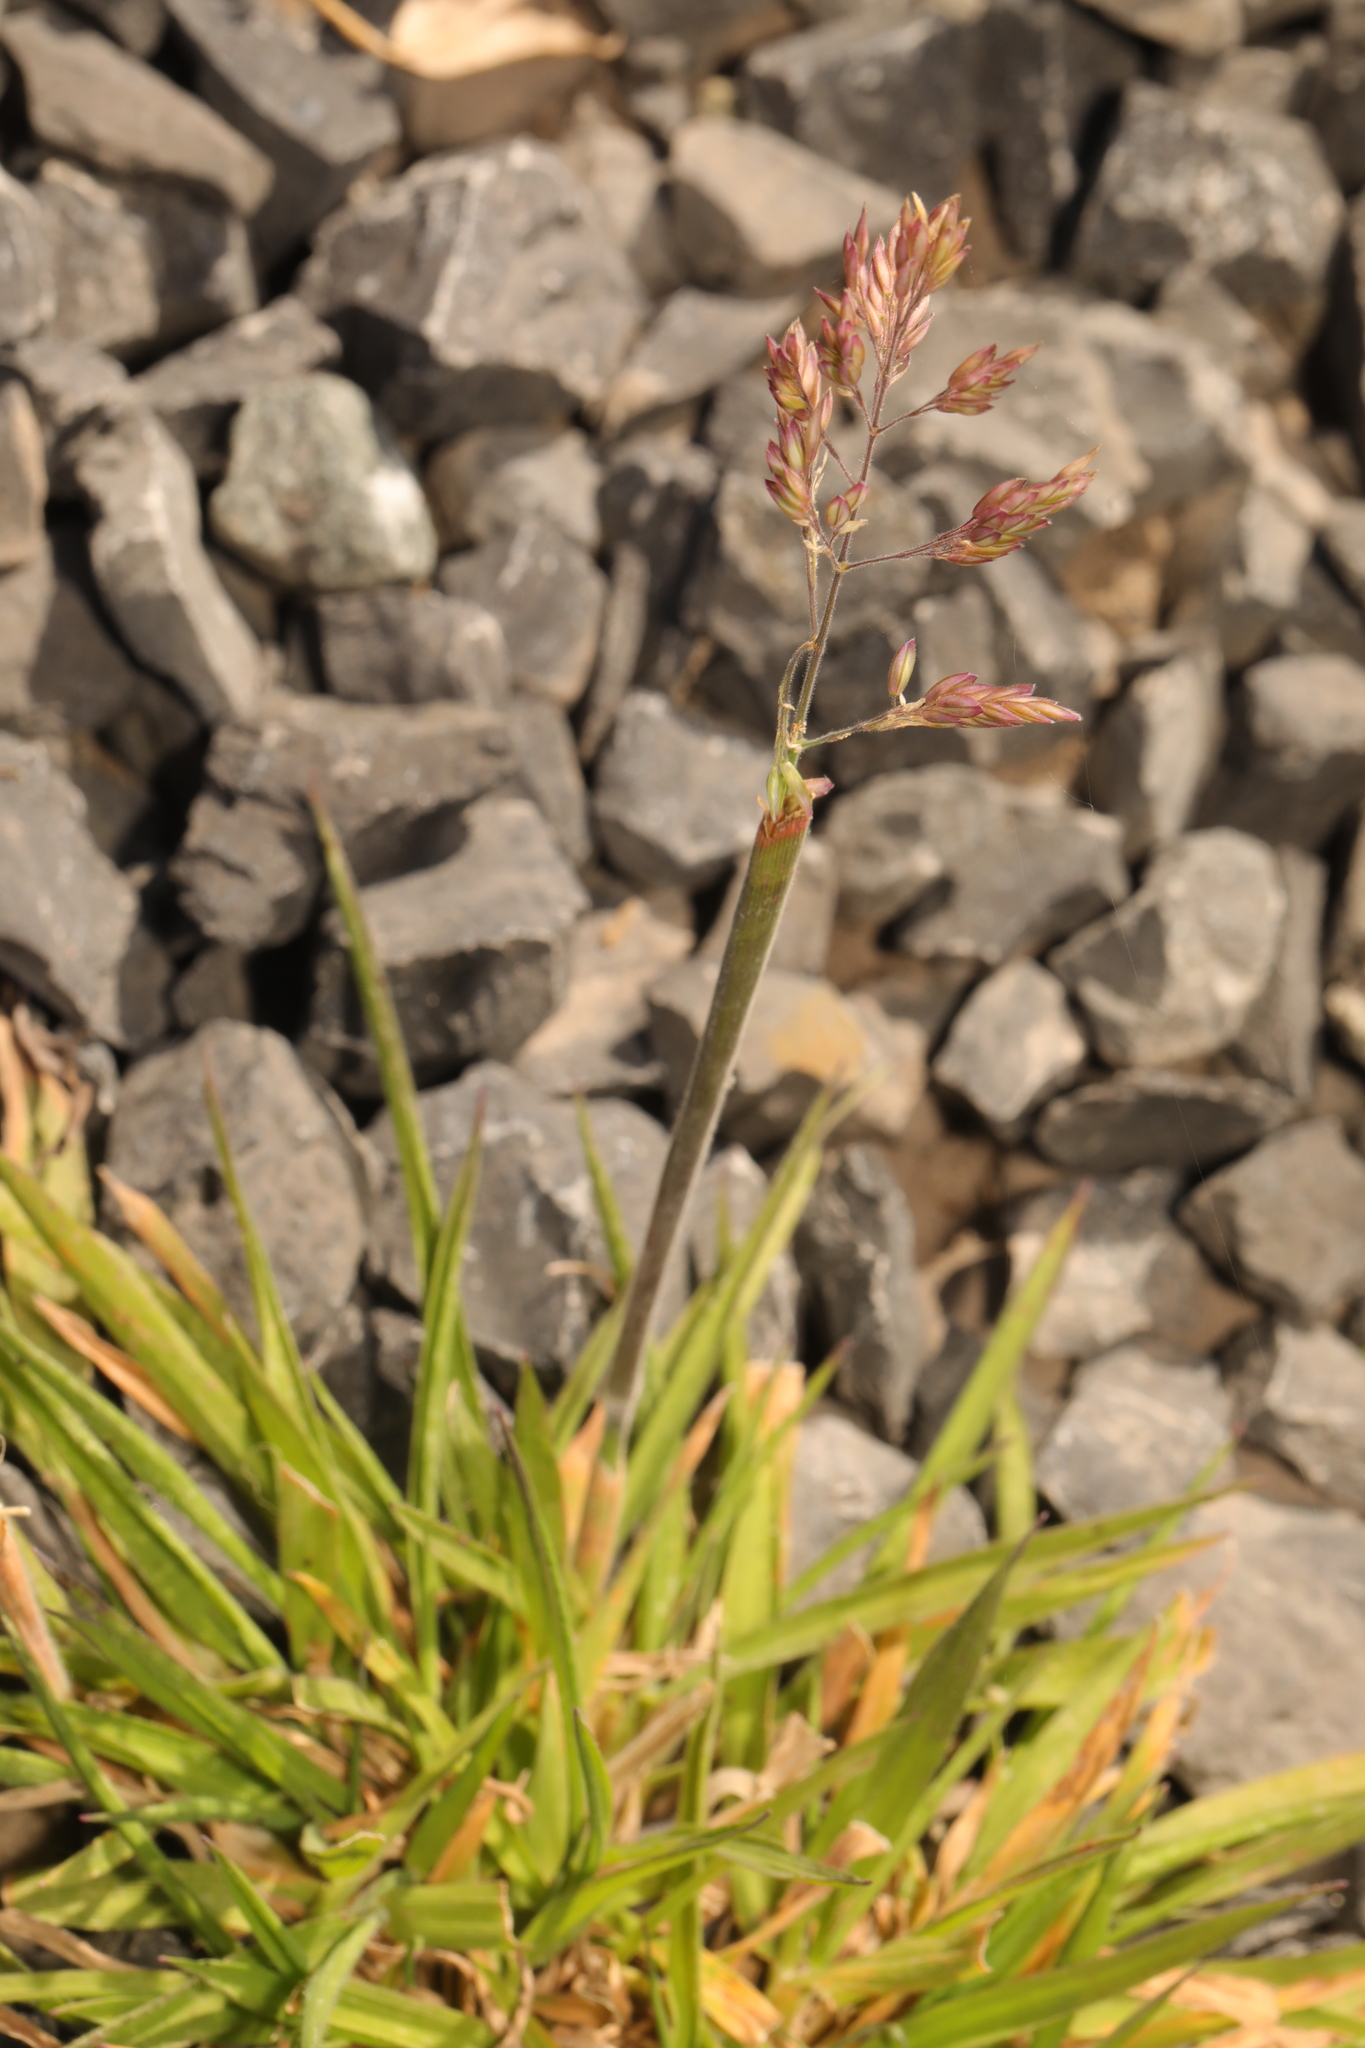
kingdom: Plantae
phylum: Tracheophyta
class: Liliopsida
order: Poales
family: Poaceae
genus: Holcus
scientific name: Holcus lanatus
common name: Yorkshire-fog
